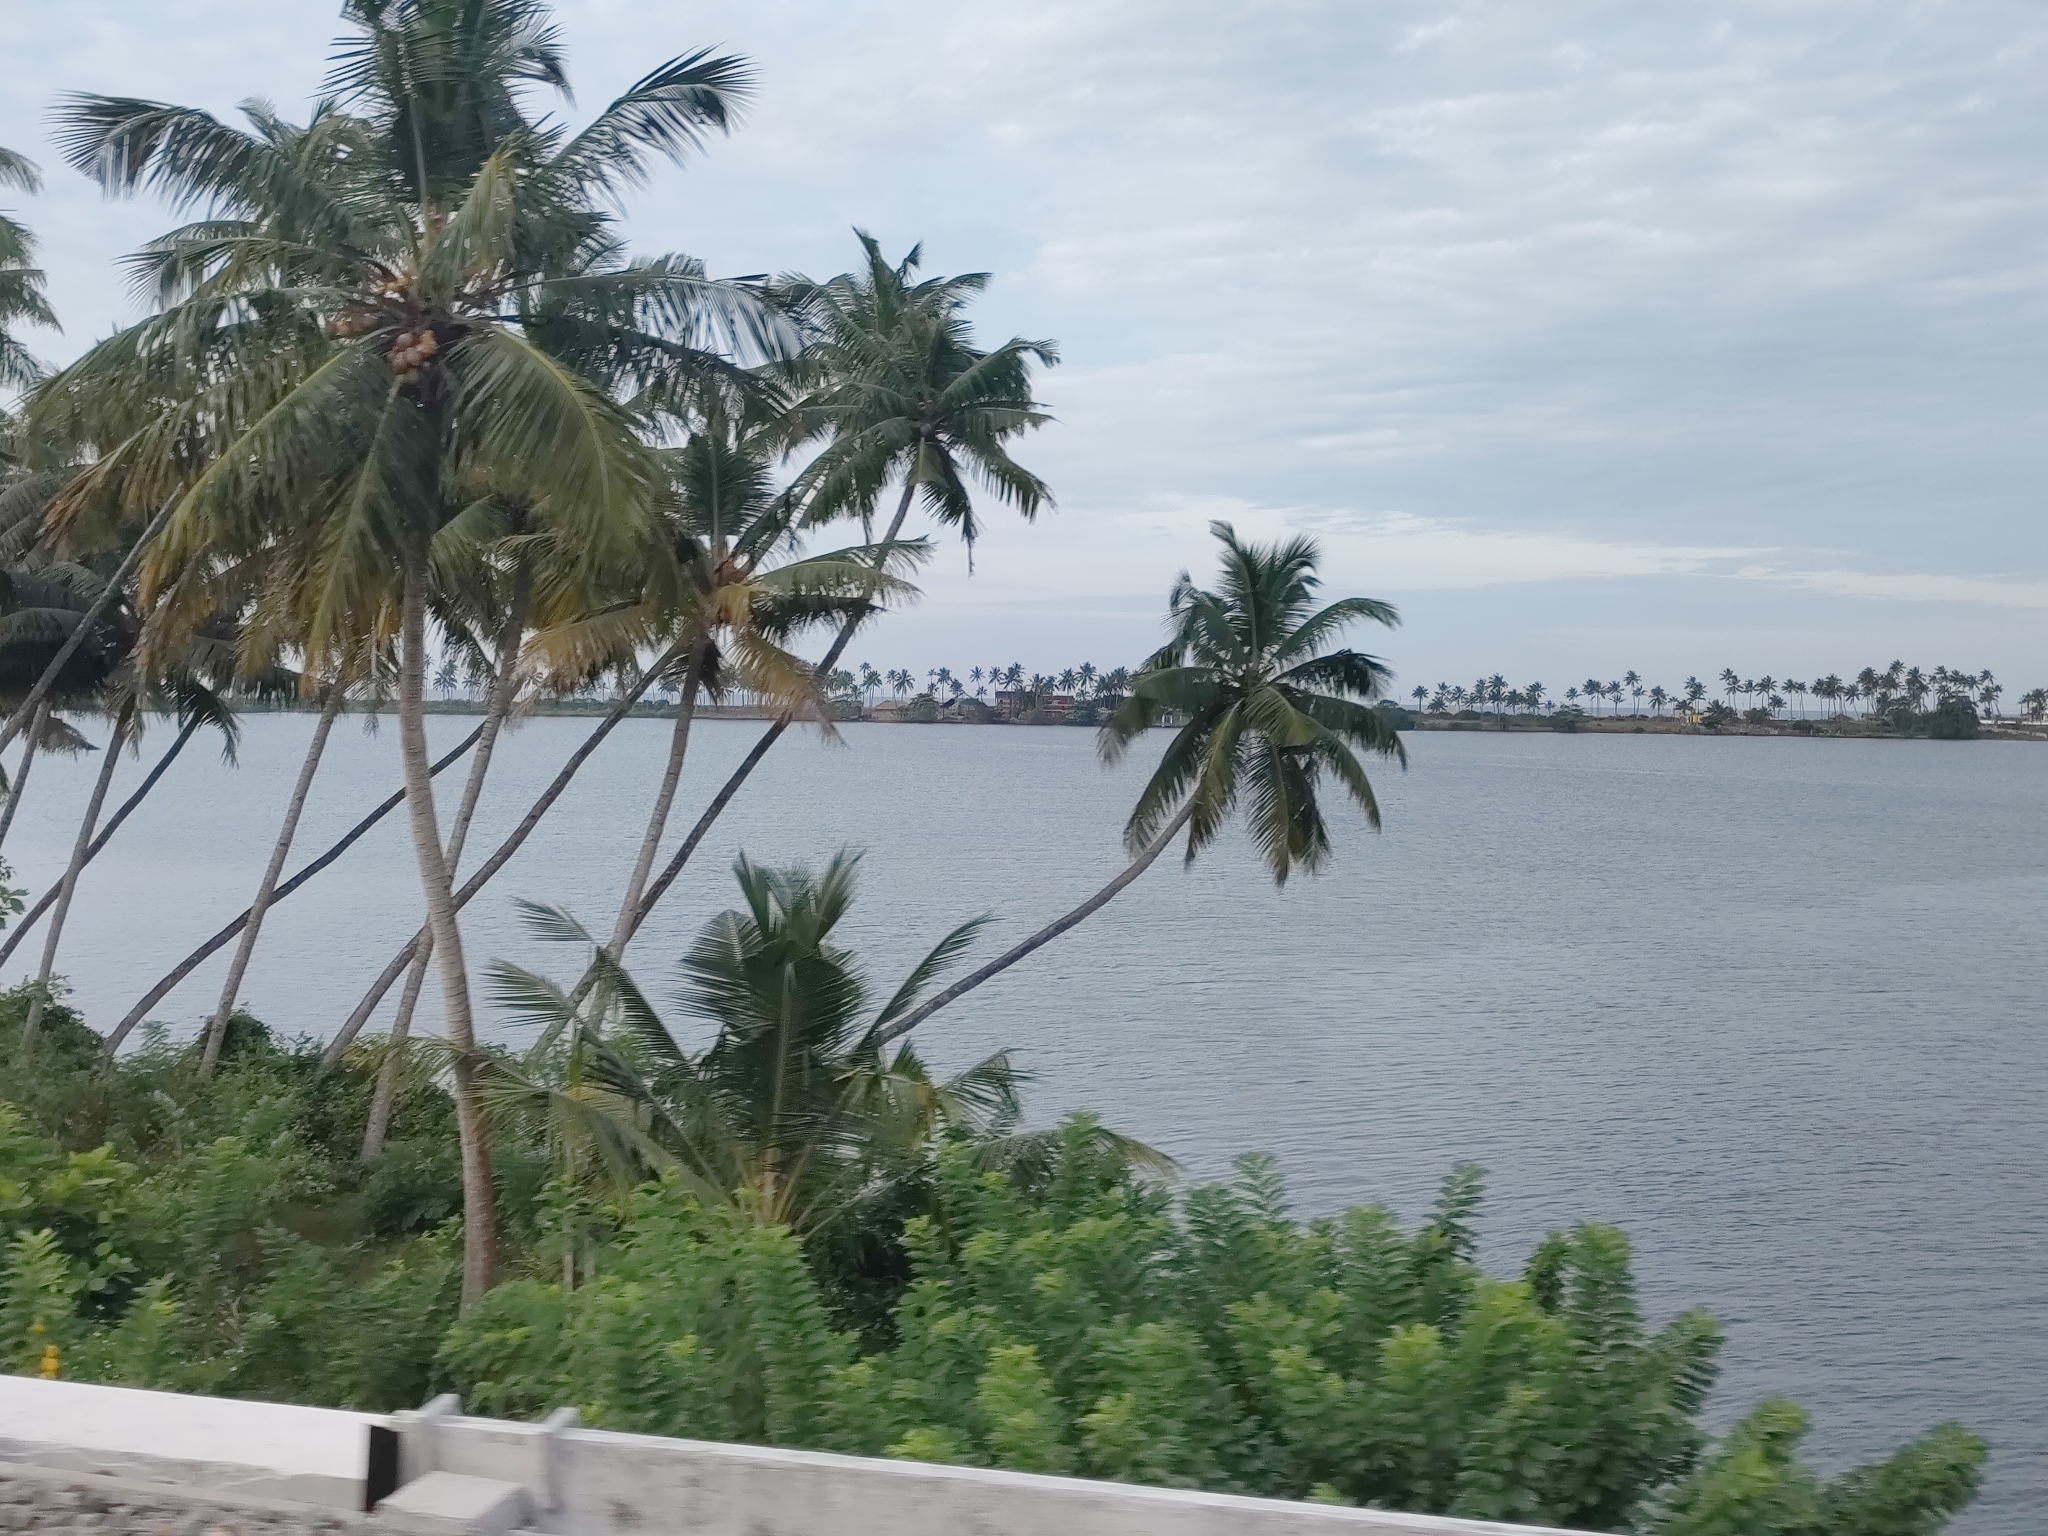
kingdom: Plantae
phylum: Tracheophyta
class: Liliopsida
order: Arecales
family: Arecaceae
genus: Cocos
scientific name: Cocos nucifera
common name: Coconut palm
